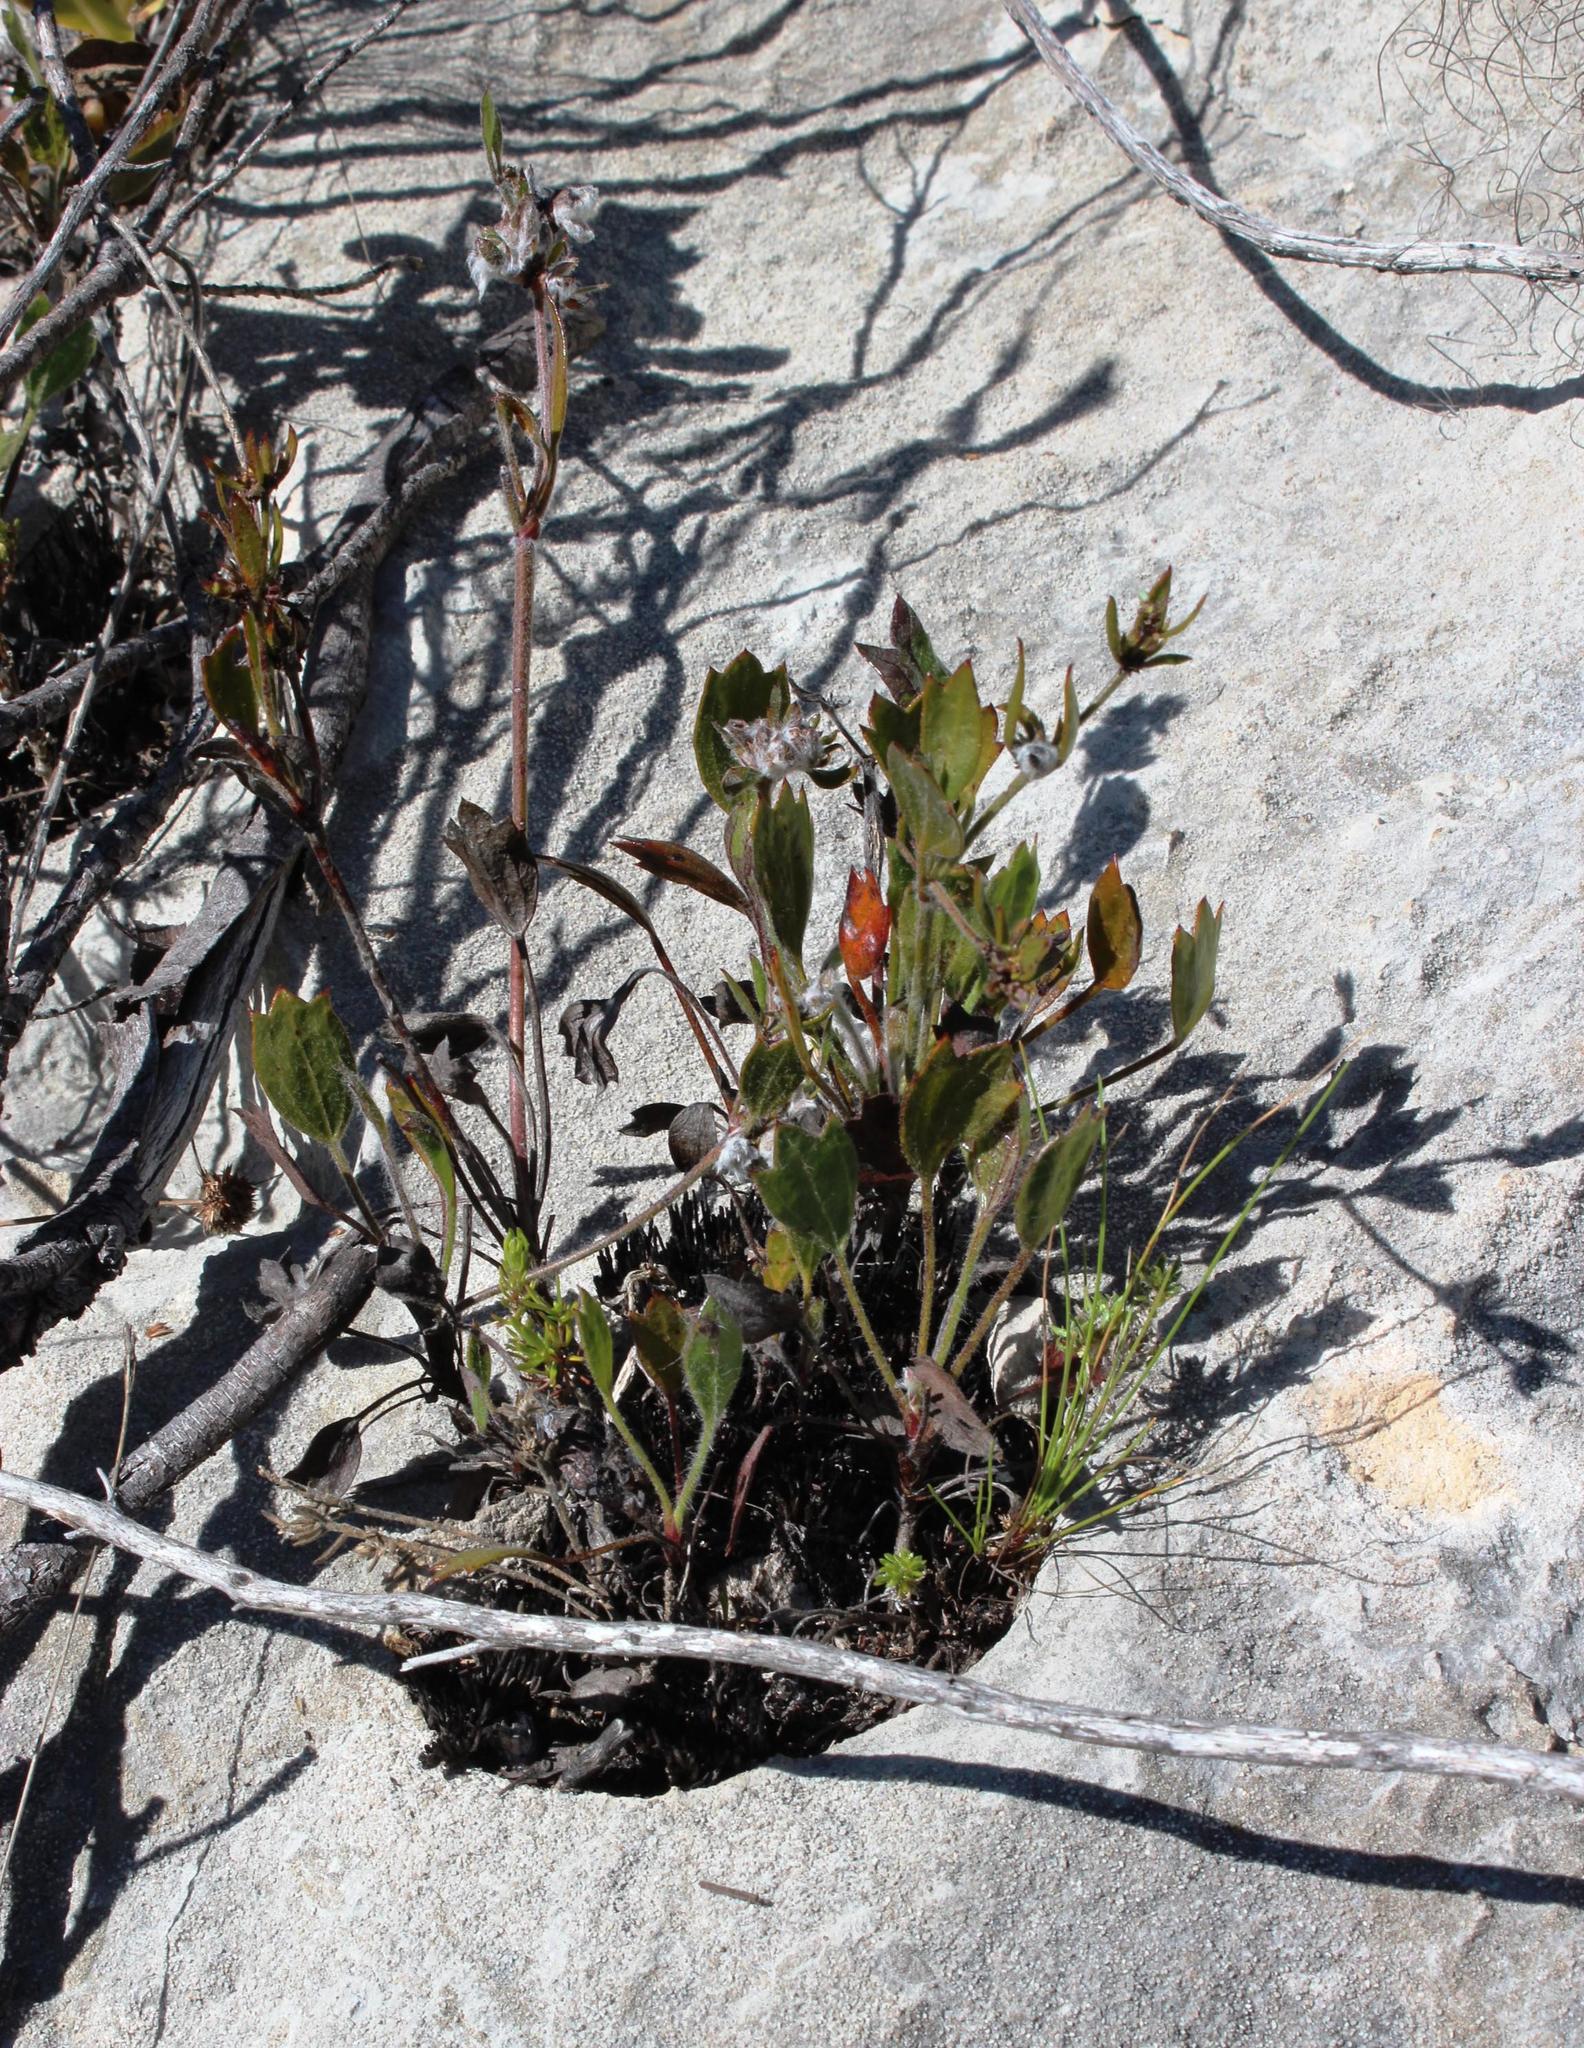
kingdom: Plantae
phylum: Tracheophyta
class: Magnoliopsida
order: Apiales
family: Apiaceae
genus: Centella
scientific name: Centella brachycarpa
